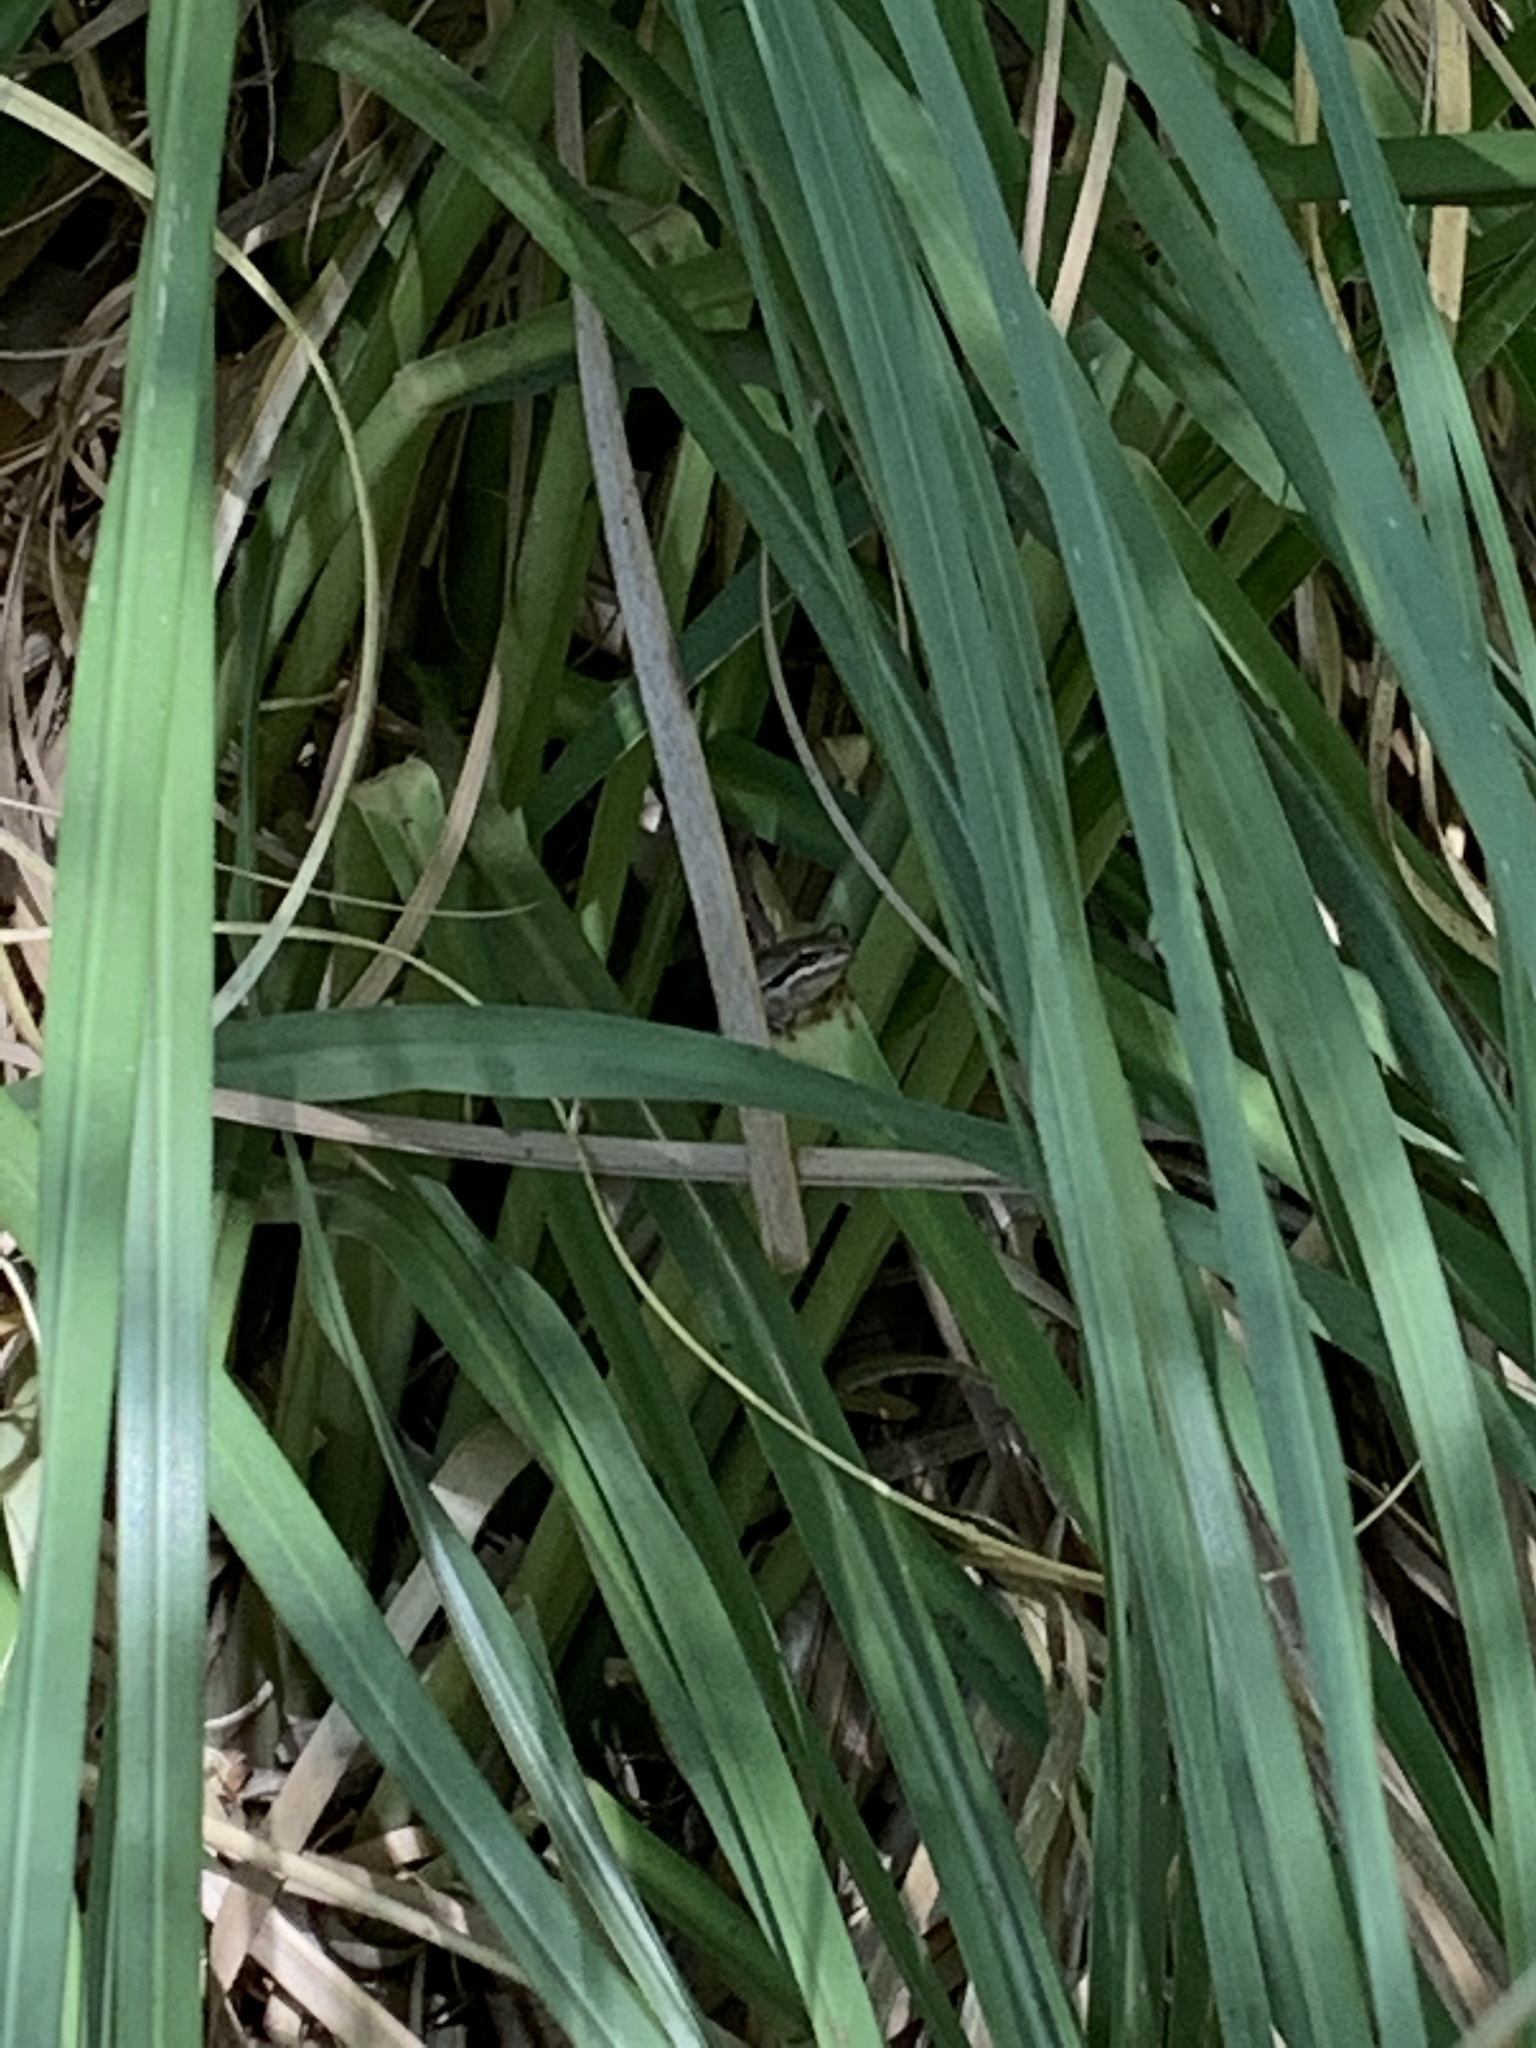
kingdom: Animalia
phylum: Chordata
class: Amphibia
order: Anura
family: Hylidae
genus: Pseudacris
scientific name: Pseudacris regilla
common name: Pacific chorus frog
